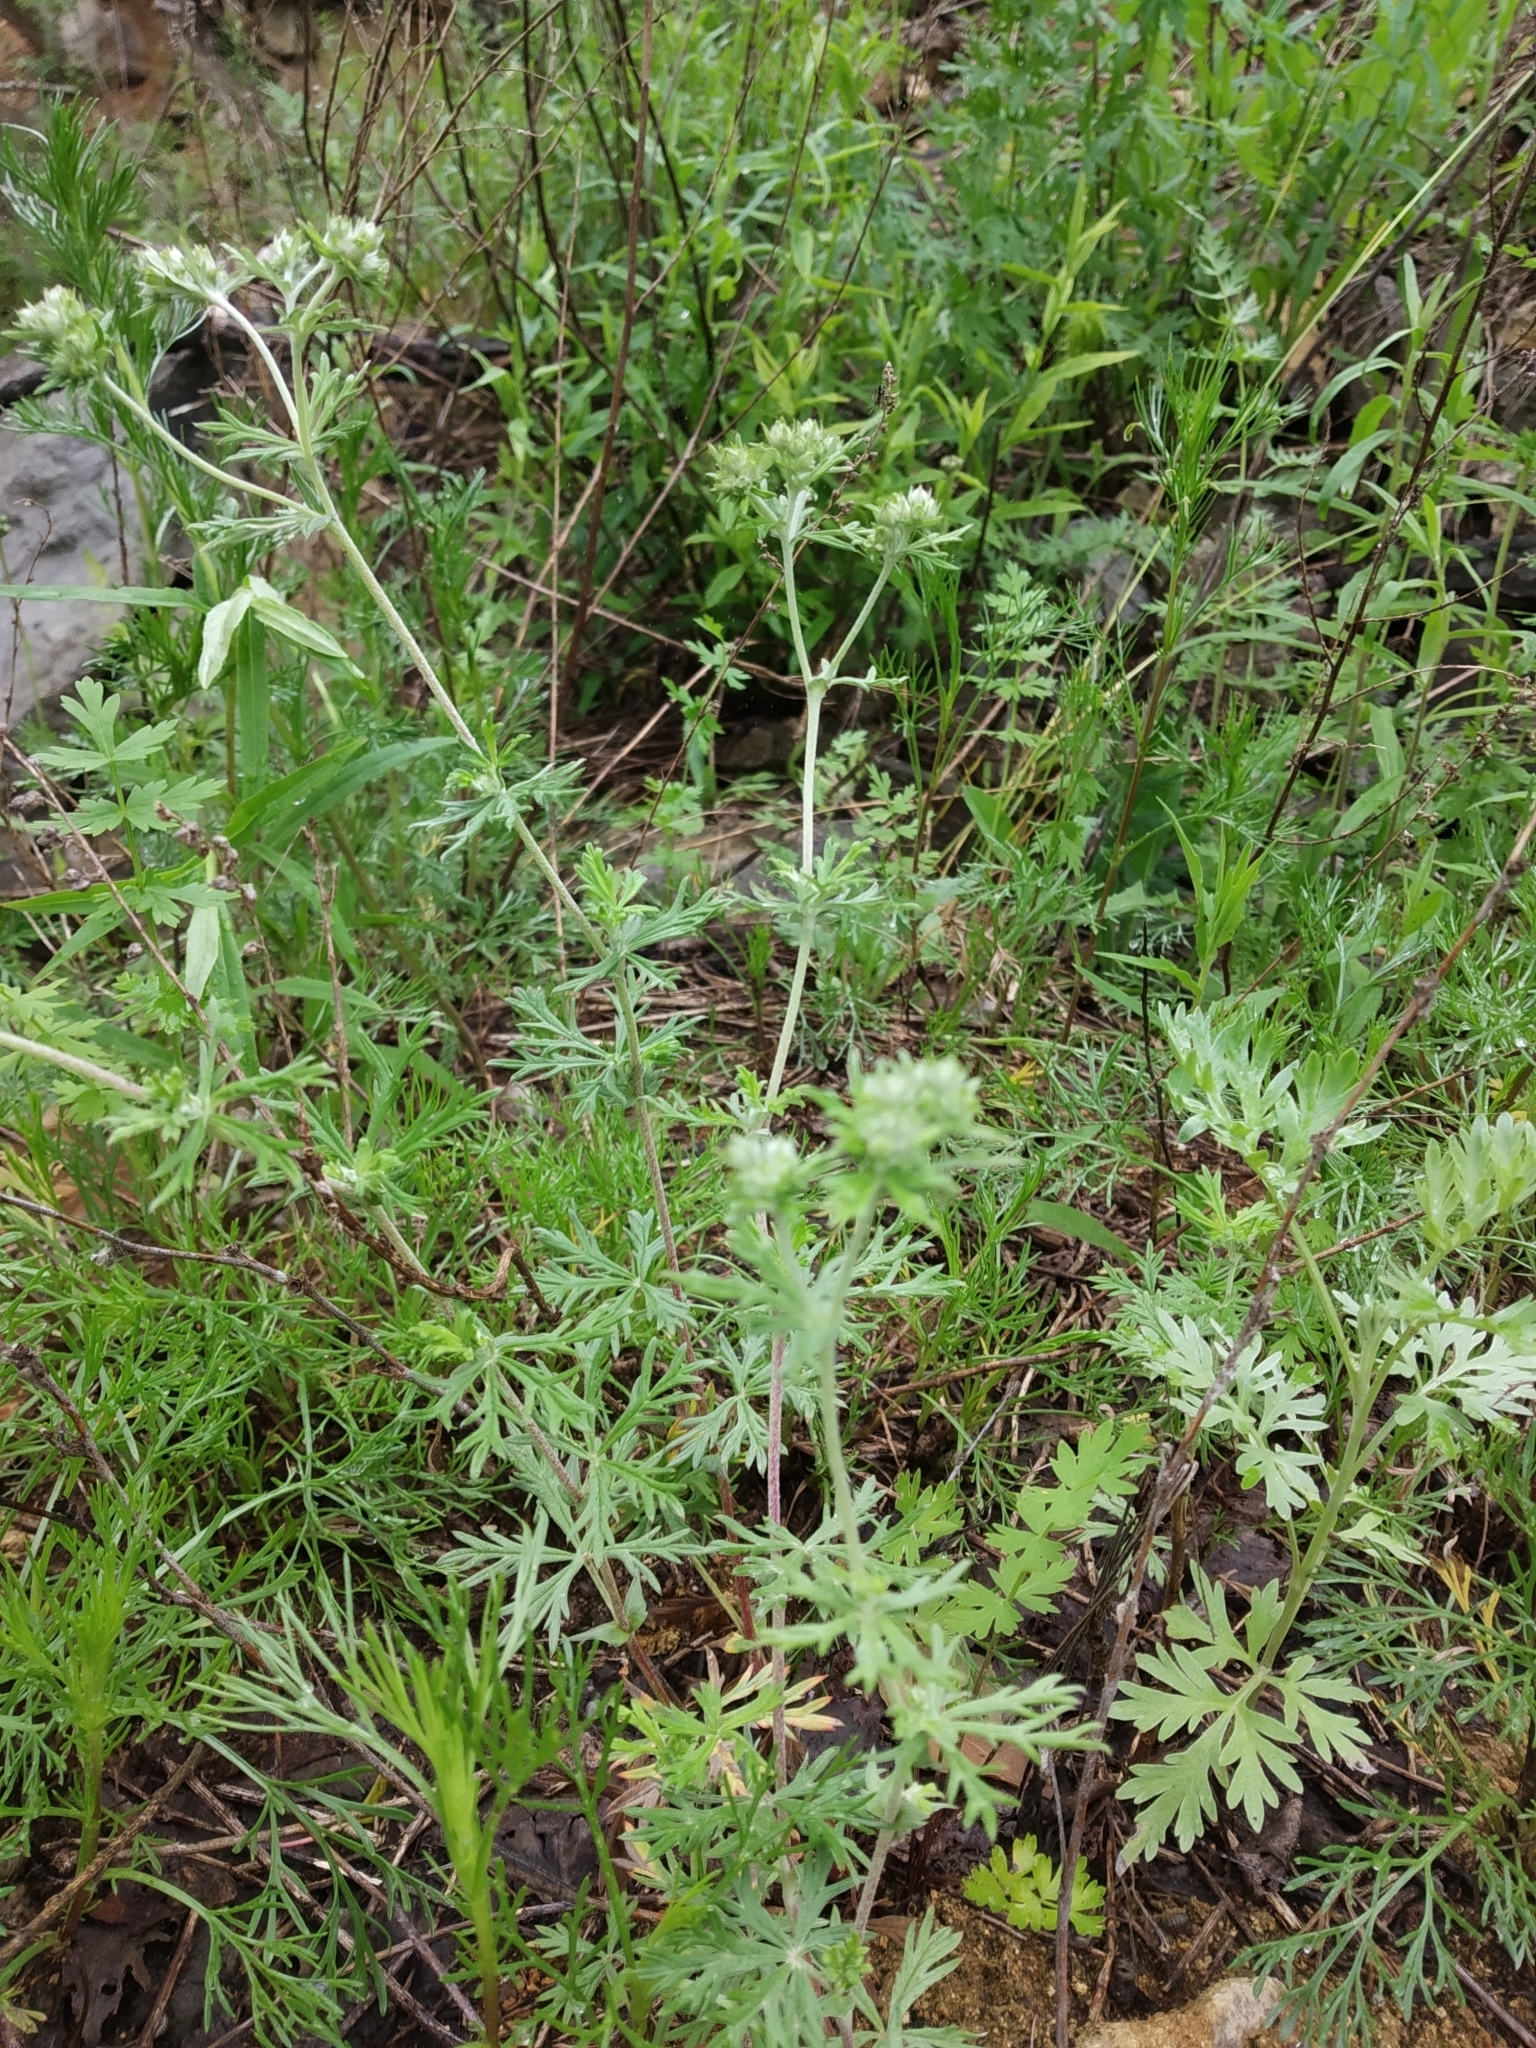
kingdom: Plantae
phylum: Tracheophyta
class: Magnoliopsida
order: Rosales
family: Rosaceae
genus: Potentilla
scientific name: Potentilla argentea
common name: Hoary cinquefoil
